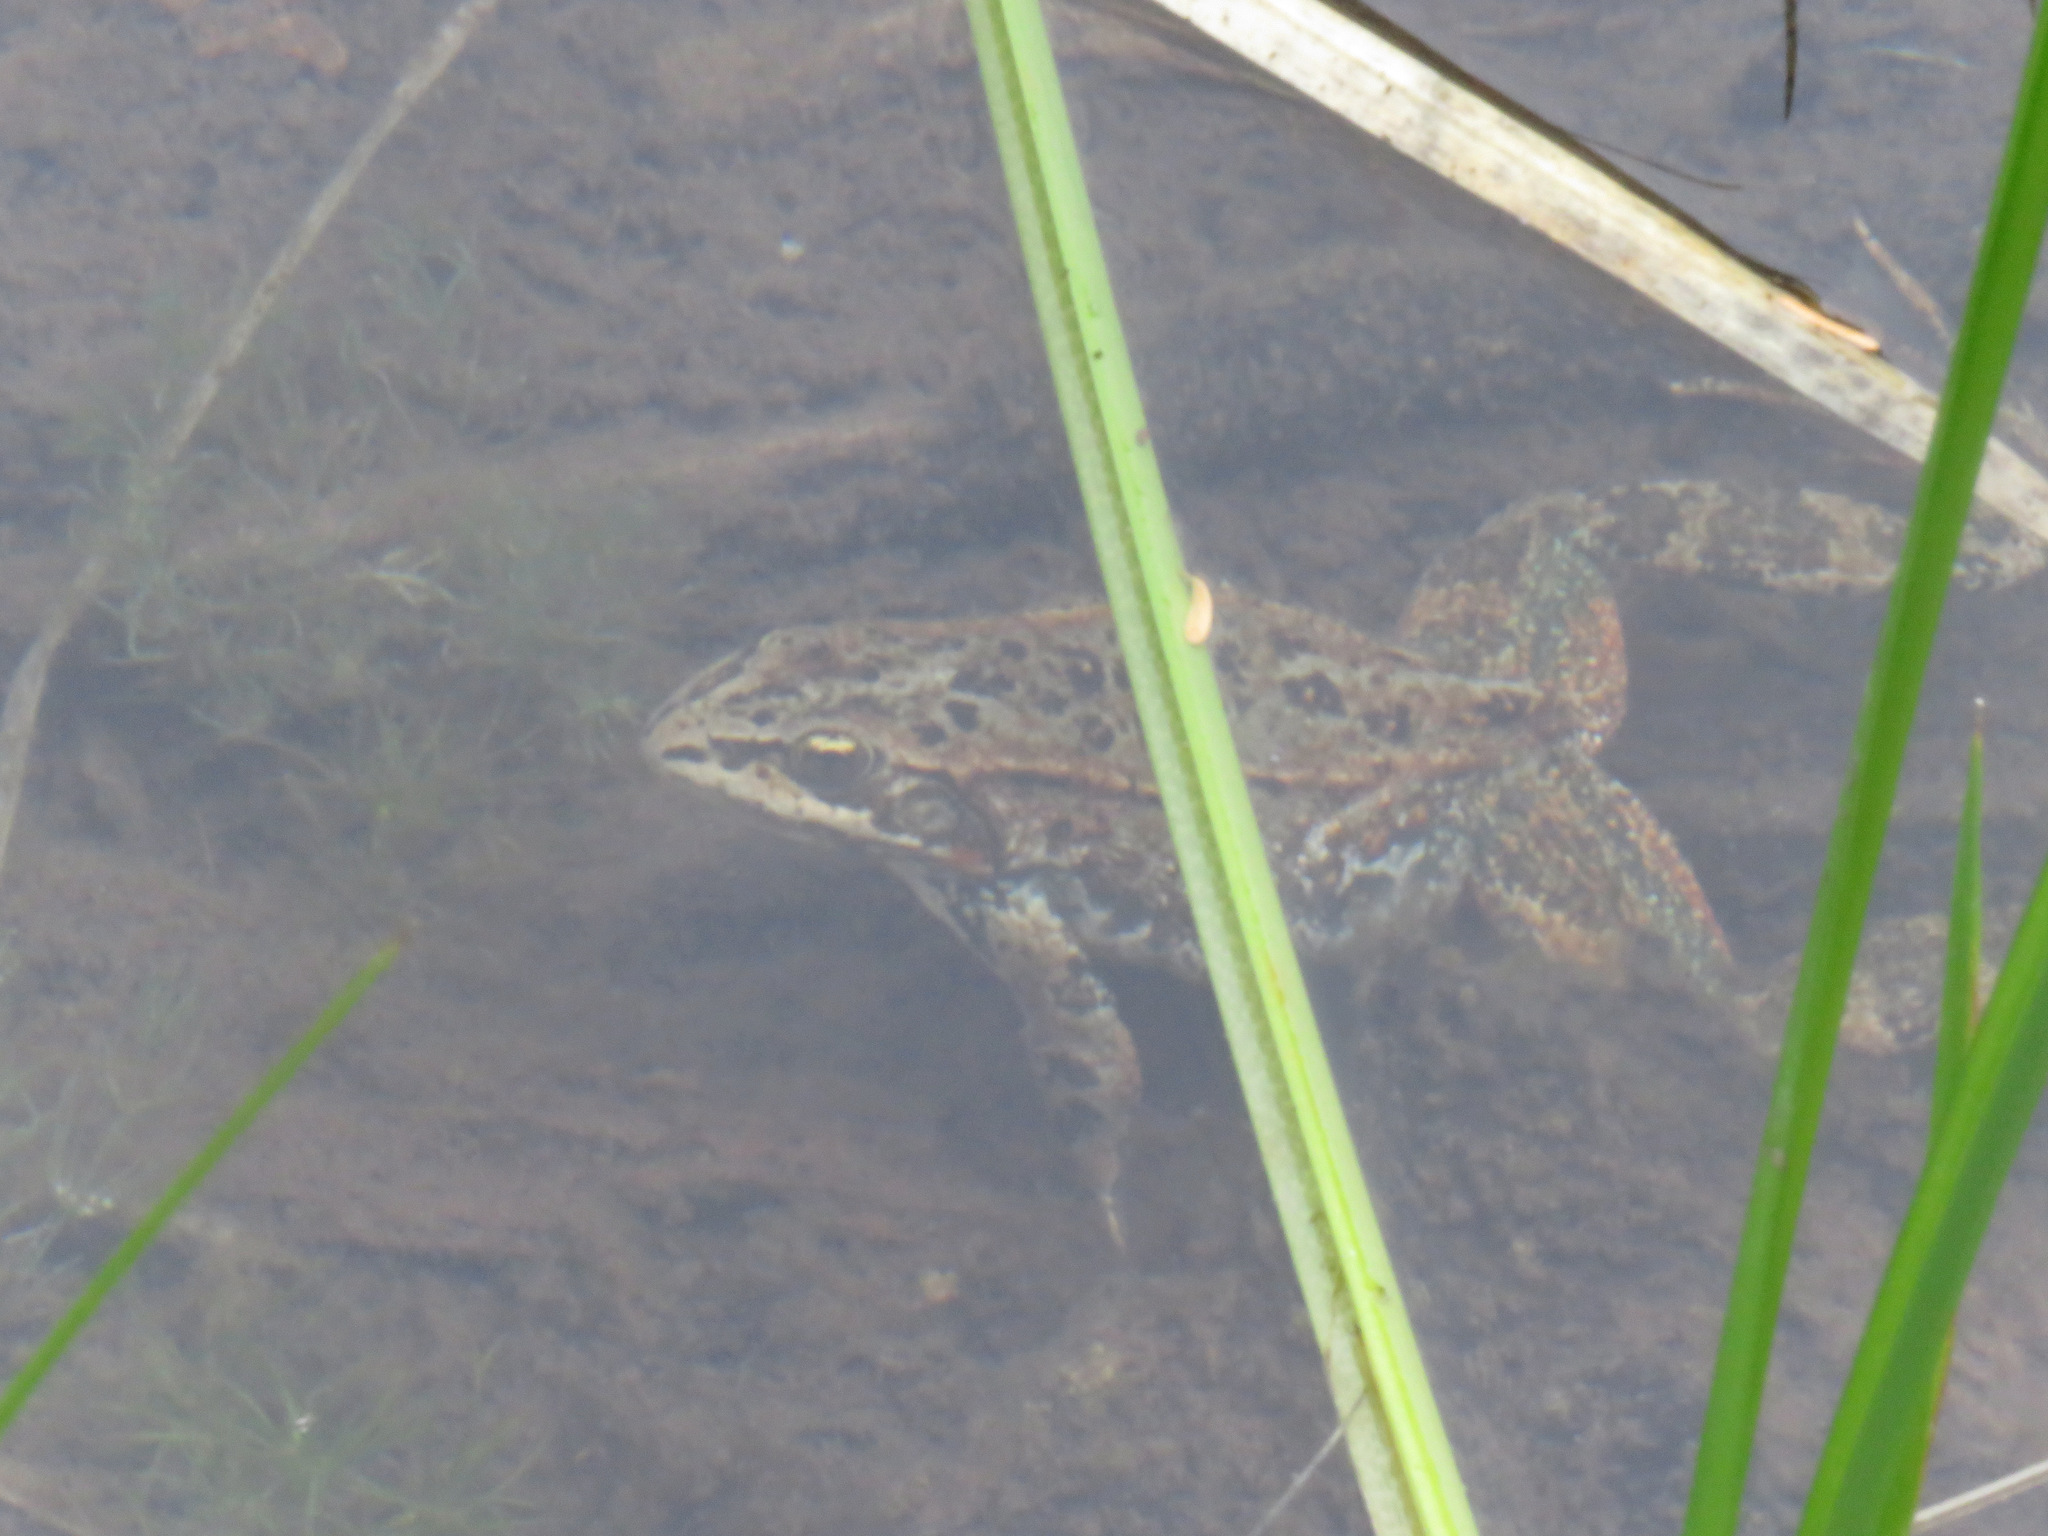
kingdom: Animalia
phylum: Chordata
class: Amphibia
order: Anura
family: Ranidae
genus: Rana
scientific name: Rana luteiventris
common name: Columbia spotted frog
